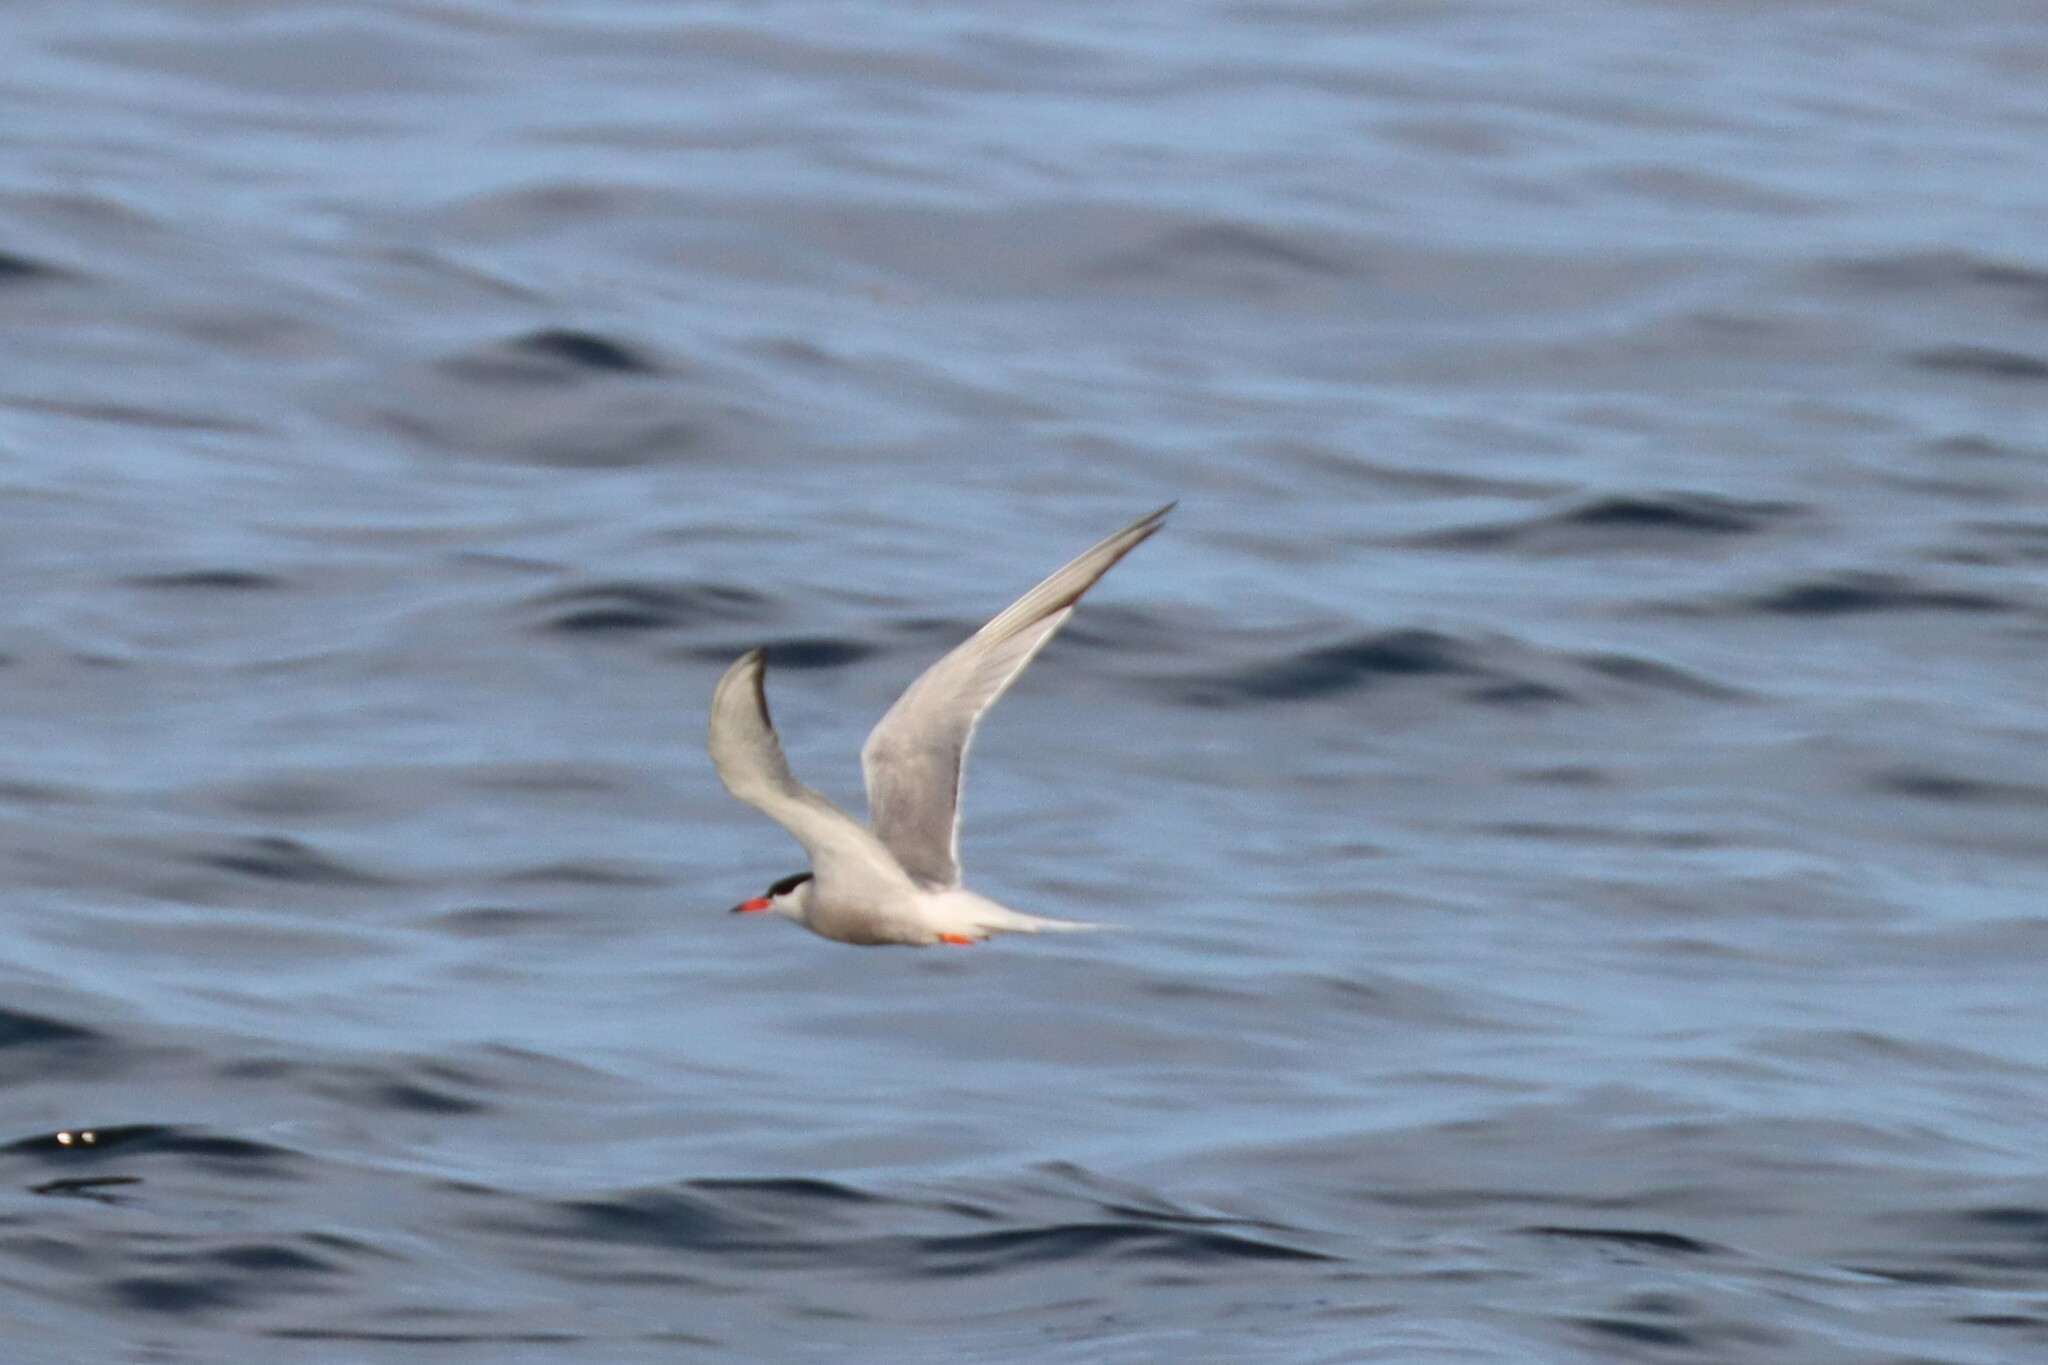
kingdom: Animalia
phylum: Chordata
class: Aves
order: Charadriiformes
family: Laridae
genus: Sterna
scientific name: Sterna hirundo
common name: Common tern
